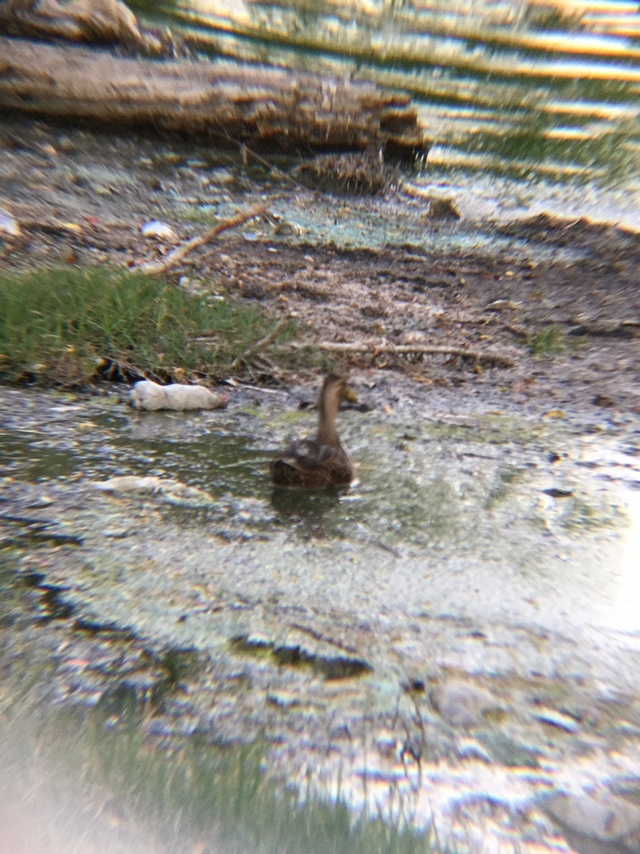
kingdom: Animalia
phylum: Chordata
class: Aves
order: Anseriformes
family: Anatidae
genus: Spatula
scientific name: Spatula clypeata
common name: Northern shoveler
